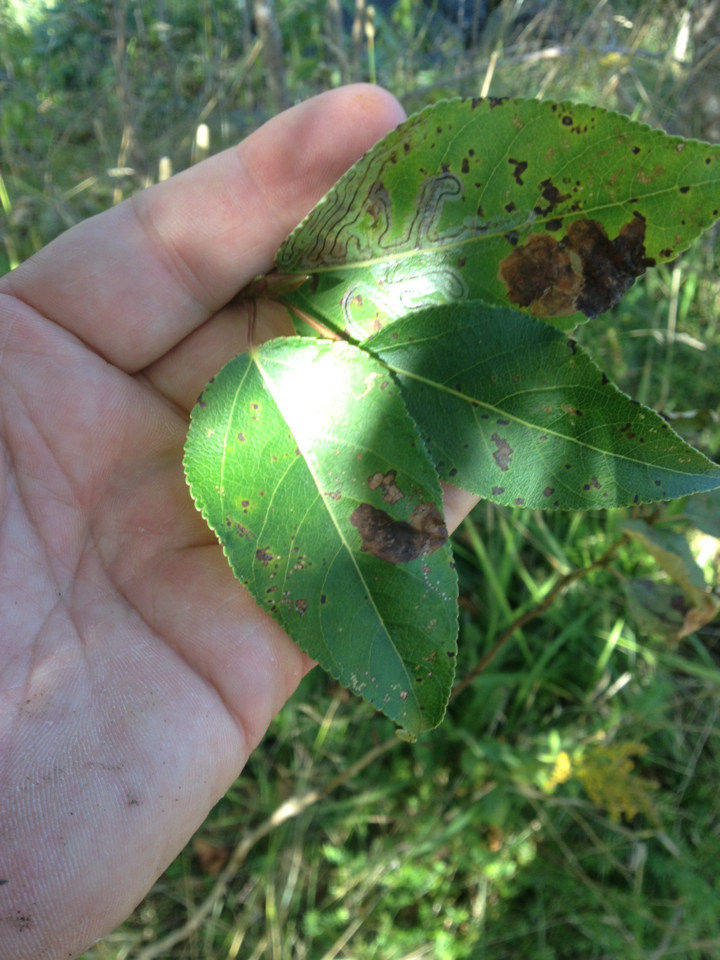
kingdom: Plantae
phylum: Tracheophyta
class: Magnoliopsida
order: Malpighiales
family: Salicaceae
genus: Populus
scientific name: Populus balsamifera
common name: Balsam poplar
